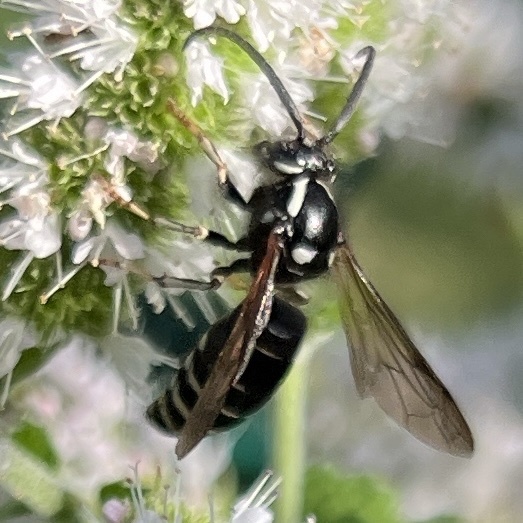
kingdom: Animalia
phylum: Arthropoda
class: Insecta
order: Hymenoptera
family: Vespidae
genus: Dolichovespula
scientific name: Dolichovespula adulterina
